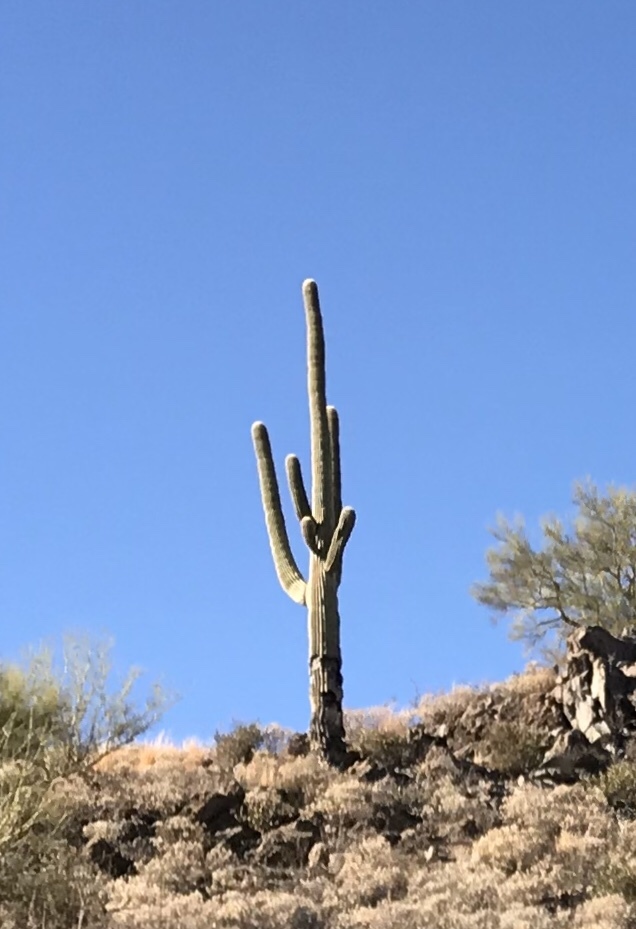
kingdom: Plantae
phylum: Tracheophyta
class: Magnoliopsida
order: Caryophyllales
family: Cactaceae
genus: Carnegiea
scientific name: Carnegiea gigantea
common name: Saguaro
